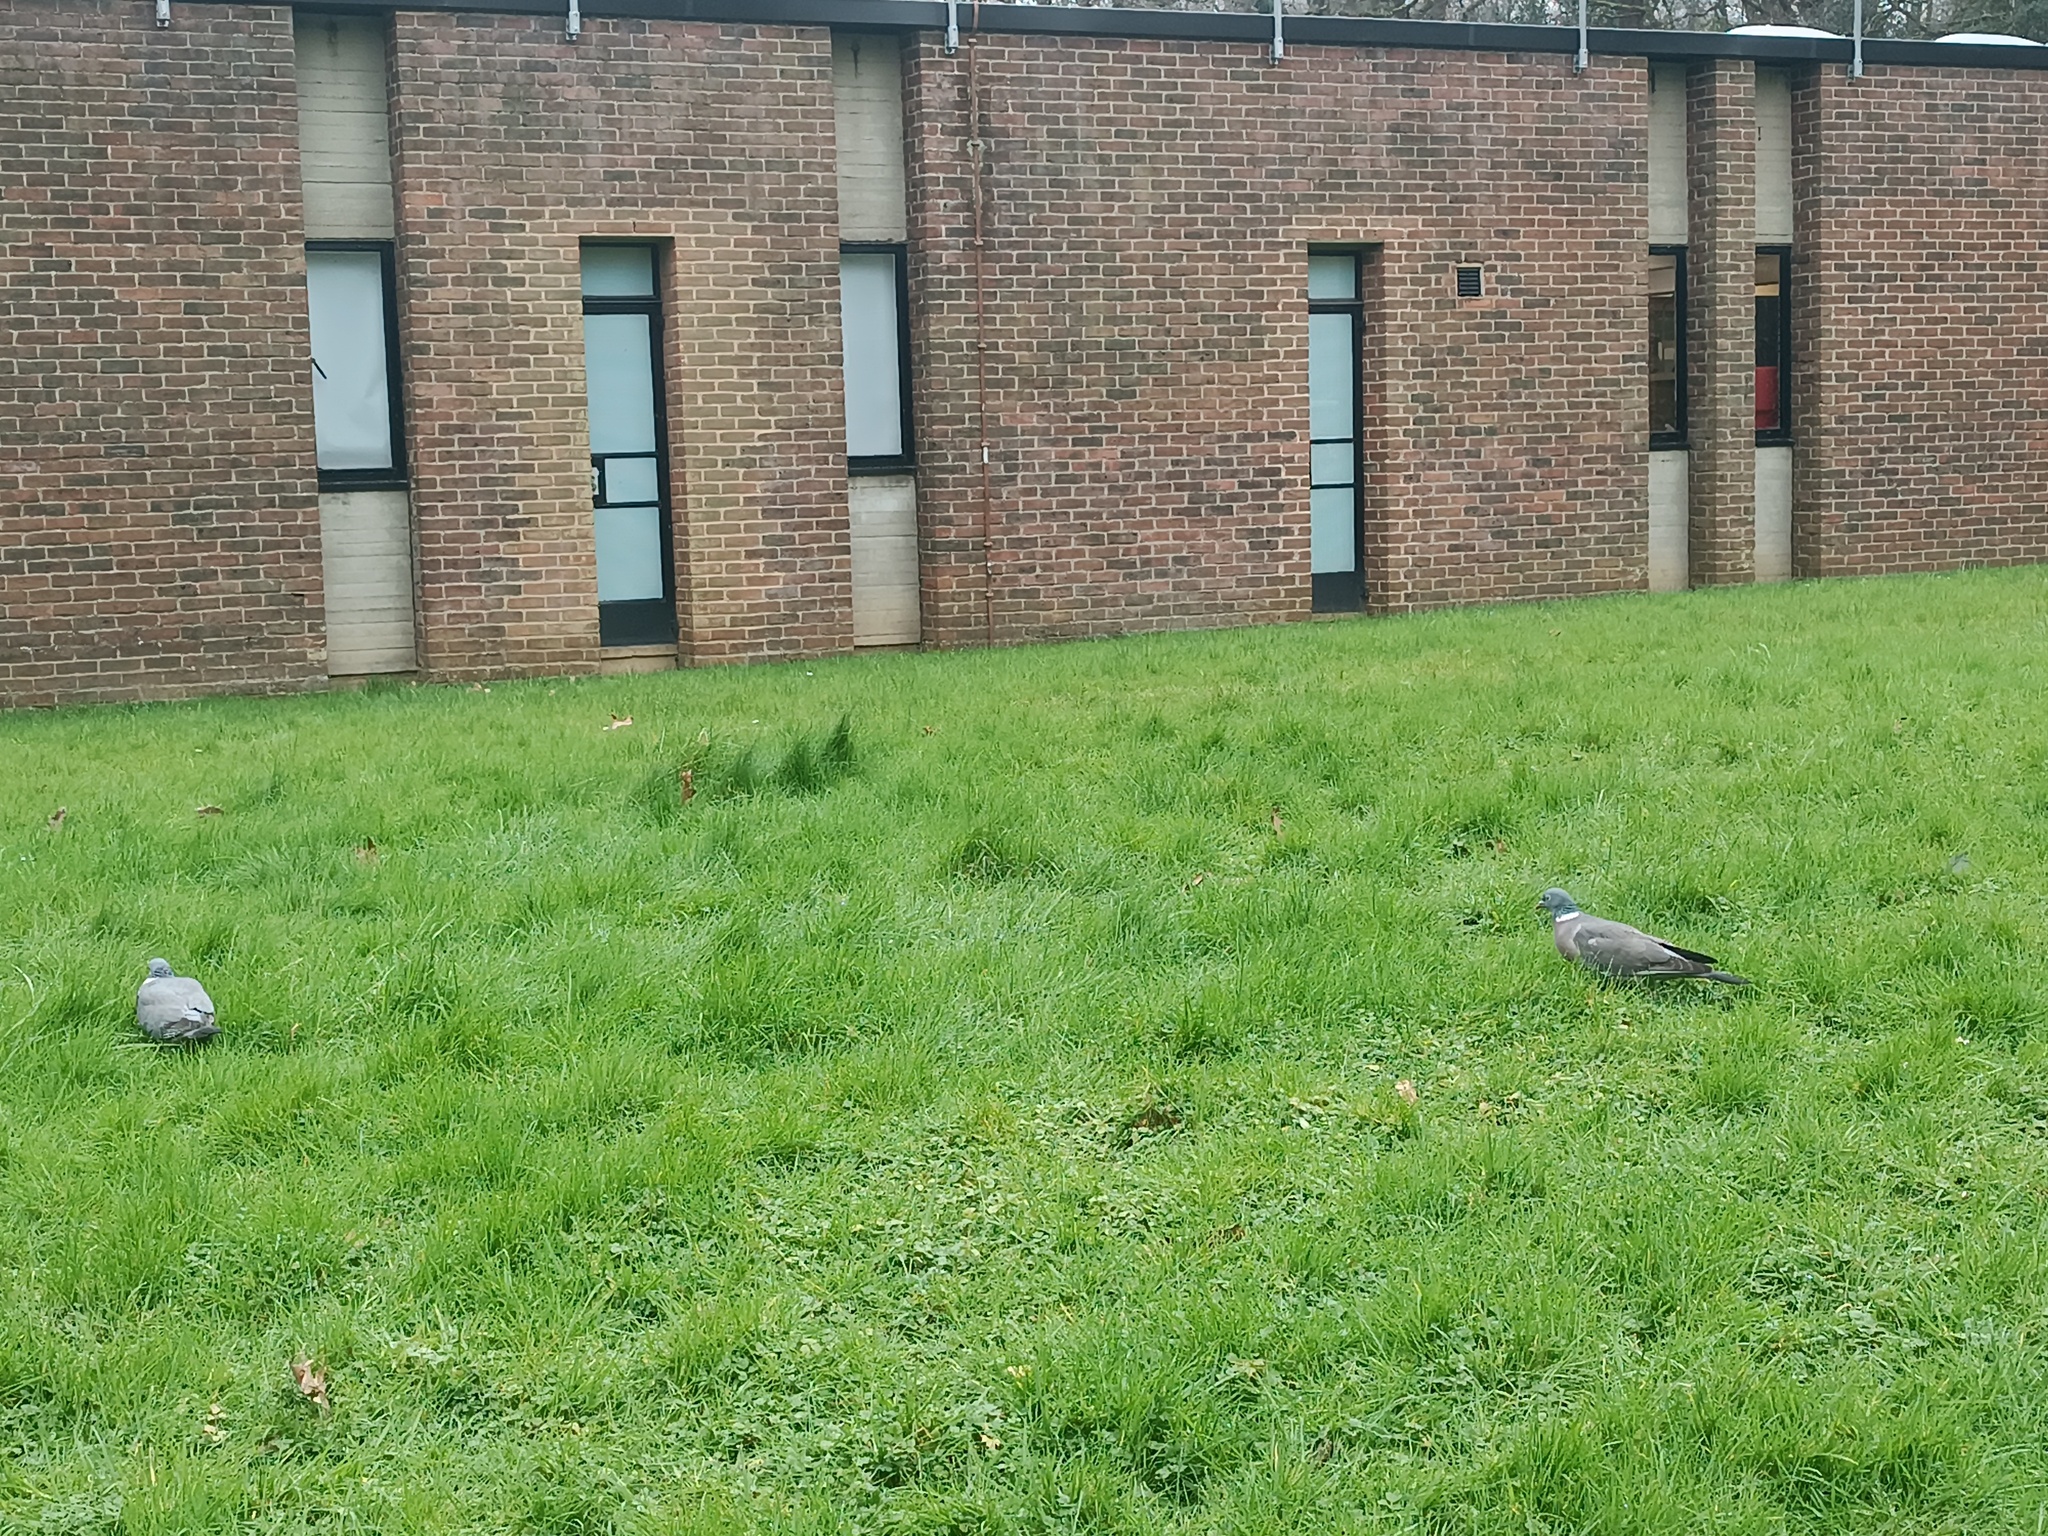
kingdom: Animalia
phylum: Chordata
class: Aves
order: Columbiformes
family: Columbidae
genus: Columba
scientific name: Columba palumbus
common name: Common wood pigeon
